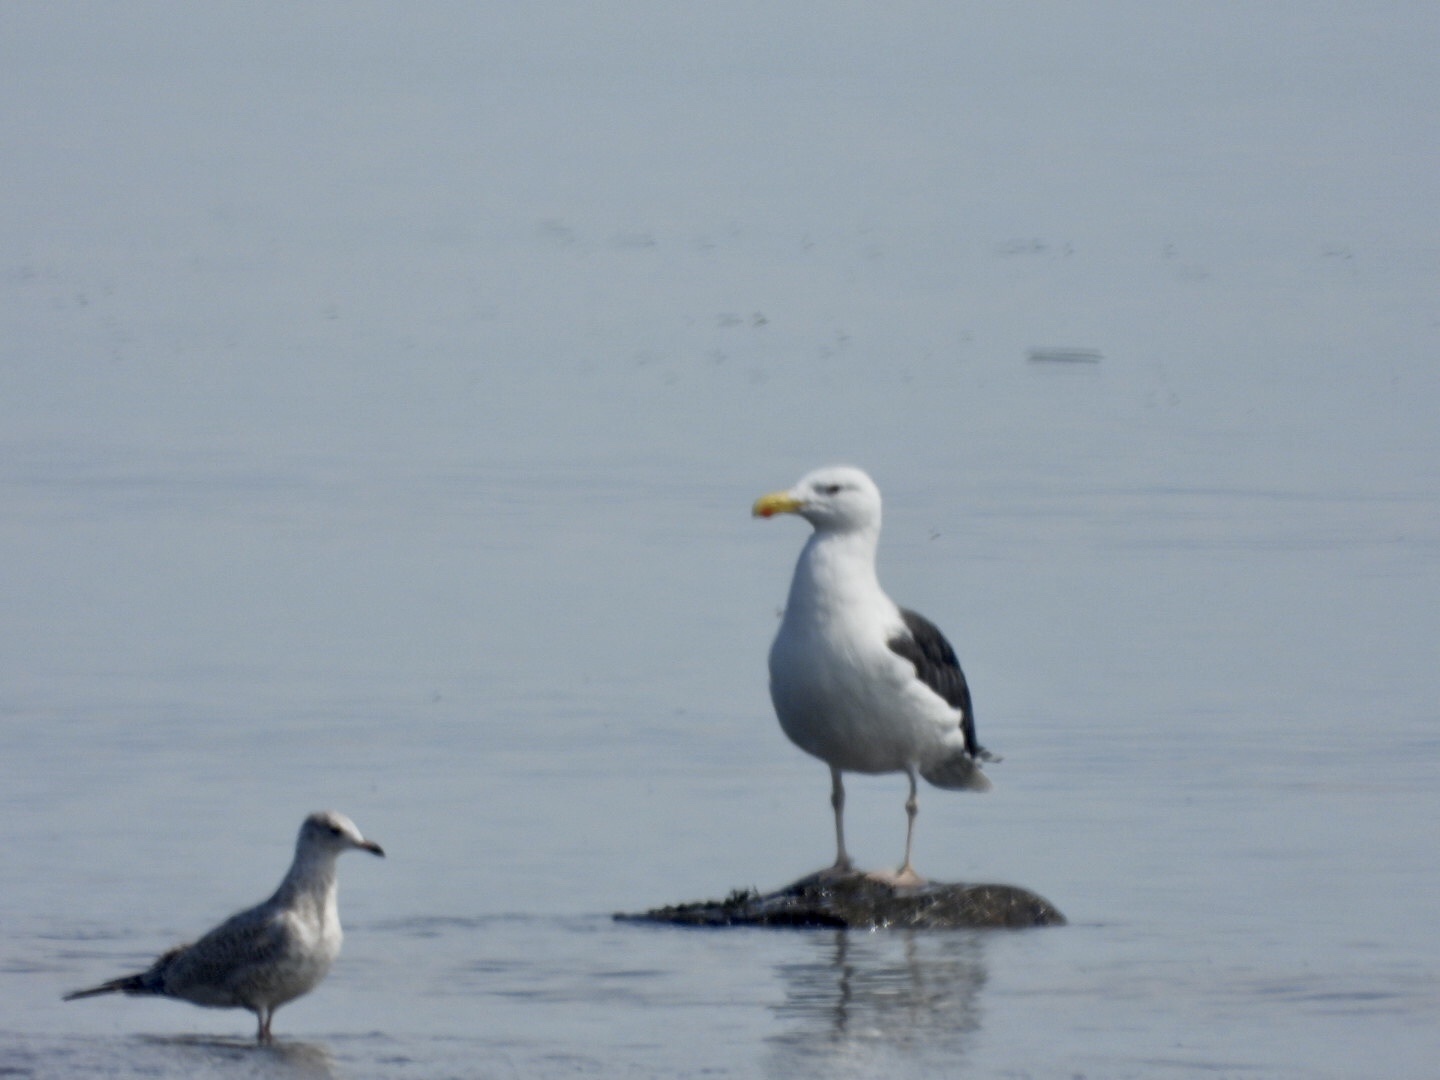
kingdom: Animalia
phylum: Chordata
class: Aves
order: Charadriiformes
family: Laridae
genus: Larus
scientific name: Larus marinus
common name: Great black-backed gull
